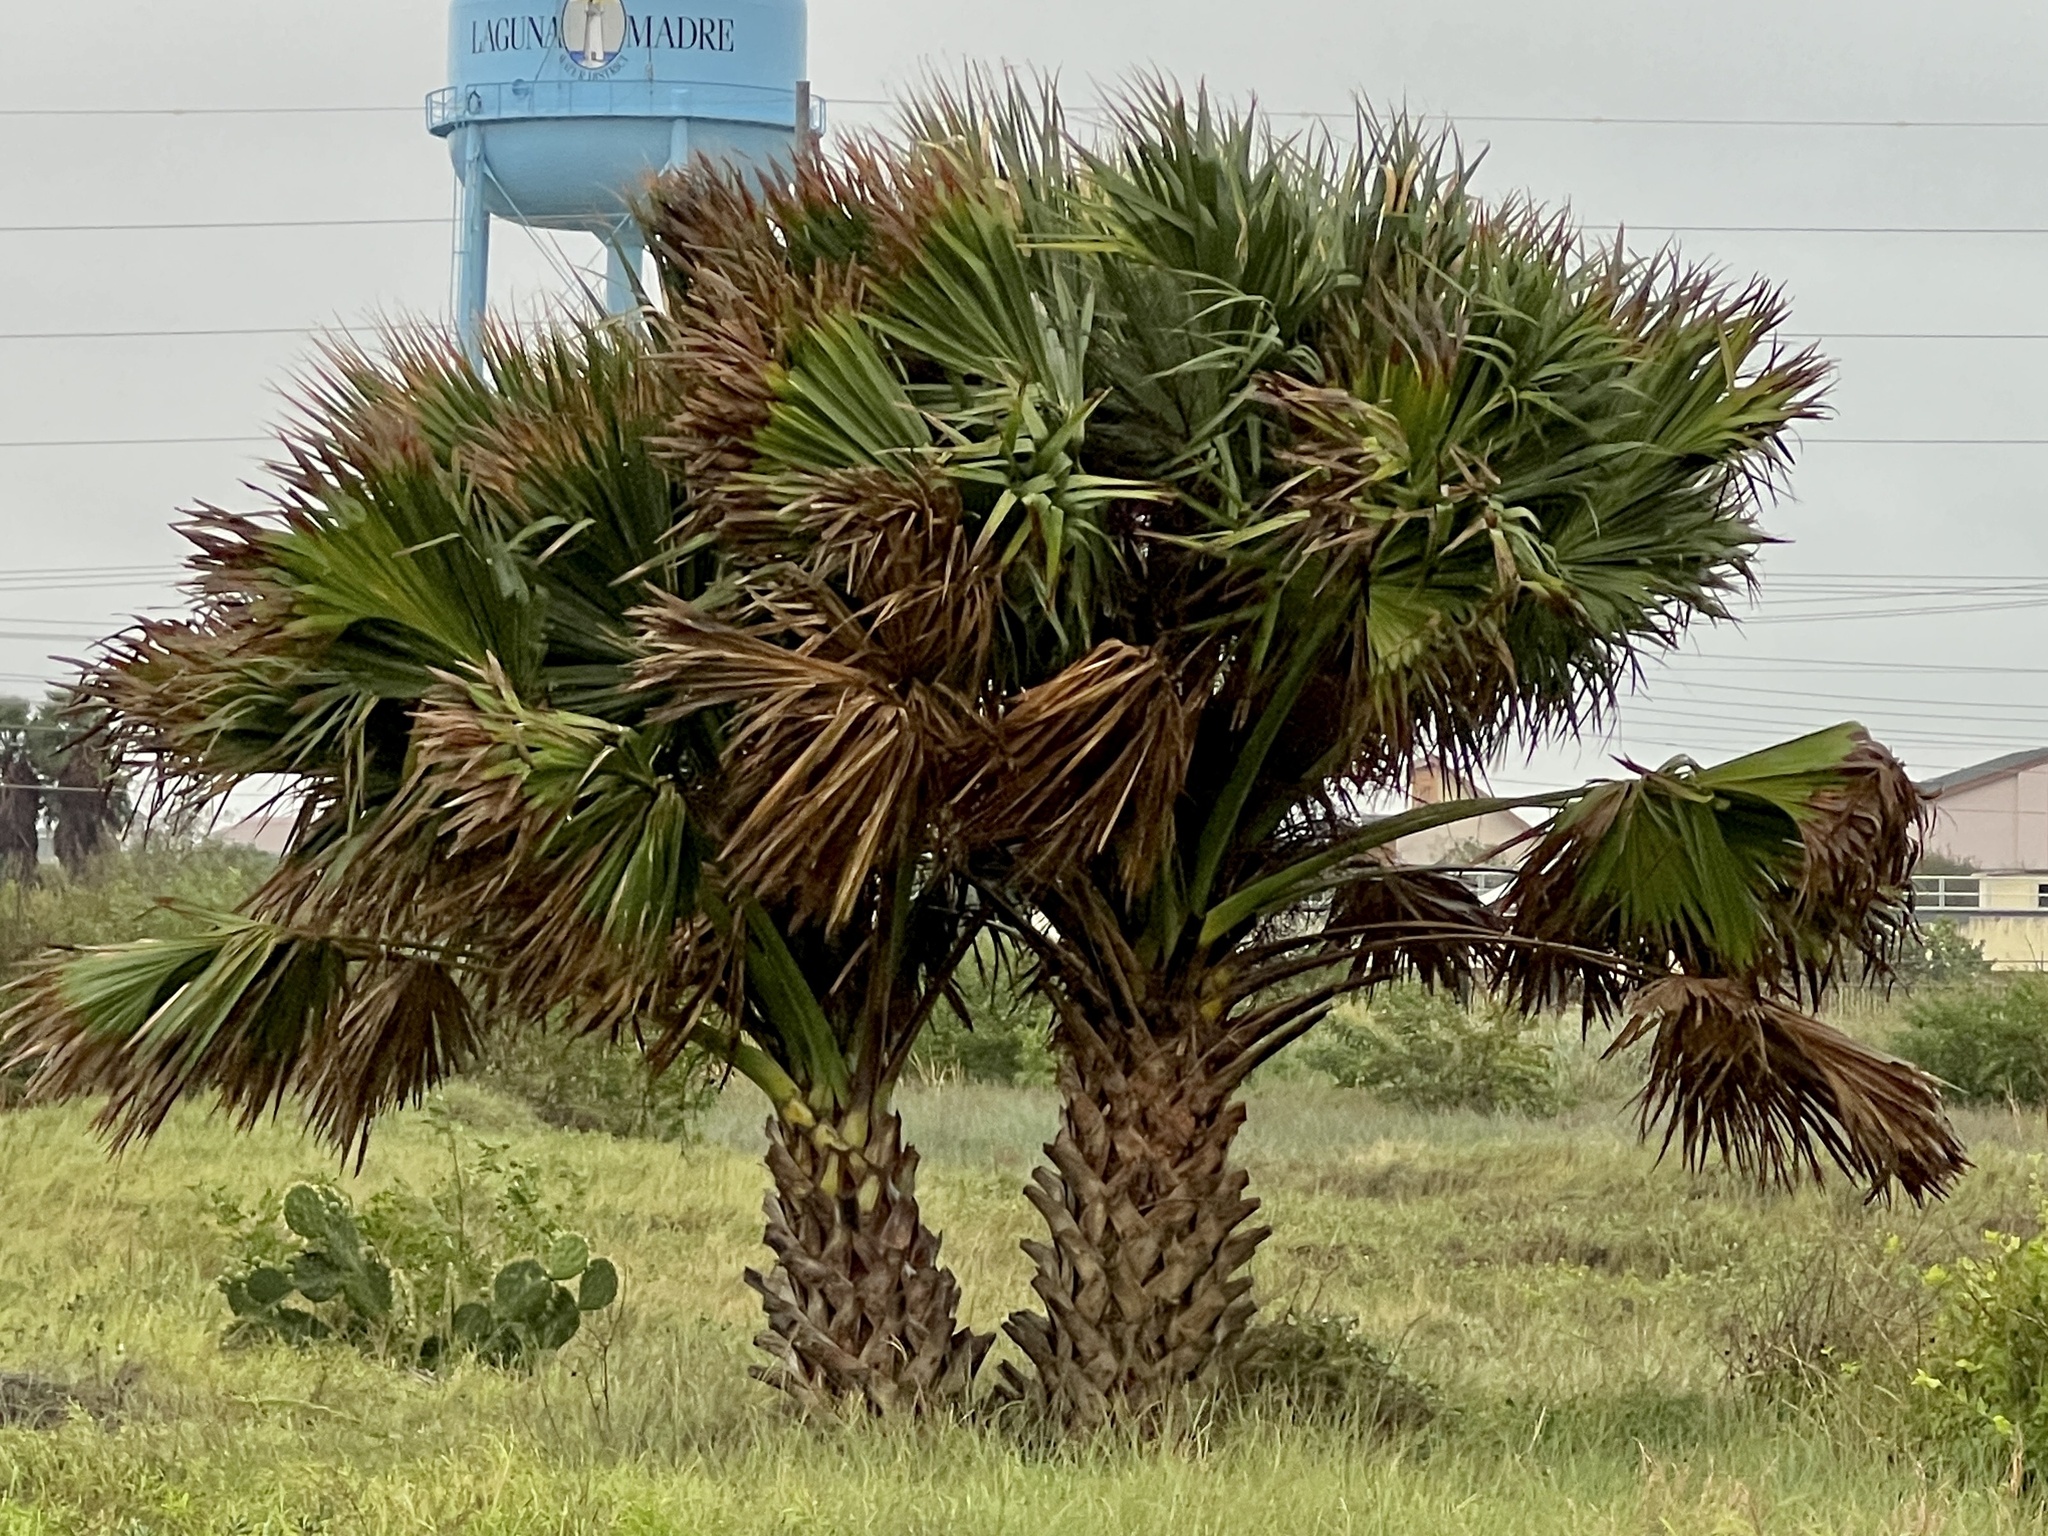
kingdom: Plantae
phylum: Tracheophyta
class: Liliopsida
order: Arecales
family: Arecaceae
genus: Sabal
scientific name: Sabal mexicana
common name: Texas palmetto
